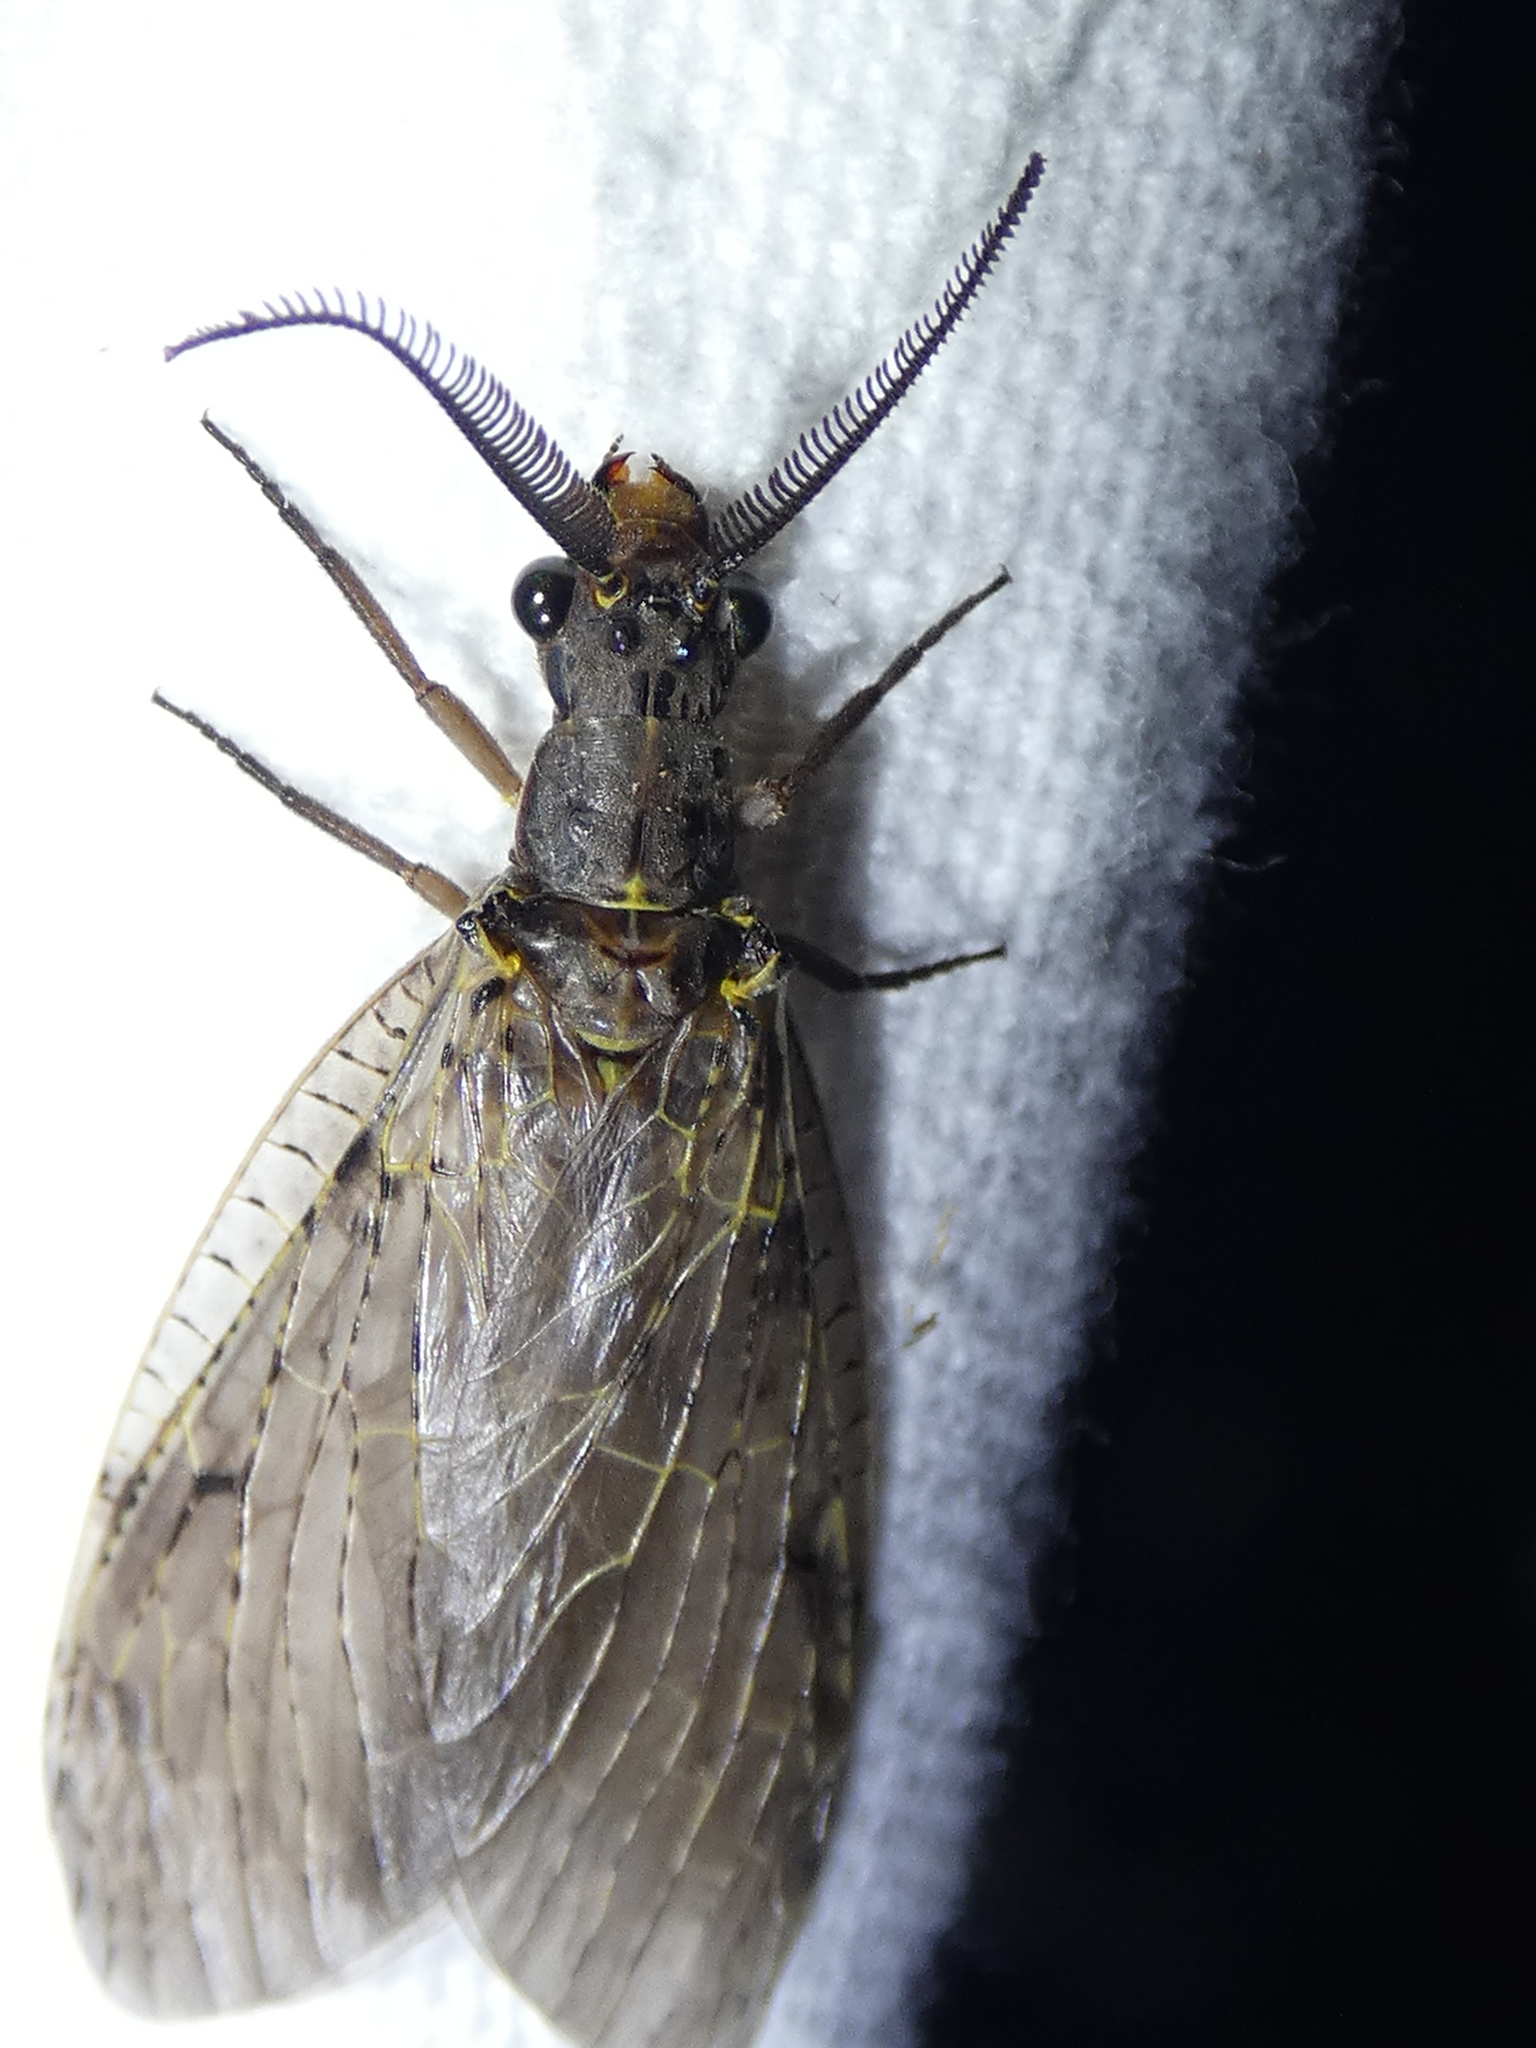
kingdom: Animalia
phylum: Arthropoda
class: Insecta
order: Megaloptera
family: Corydalidae
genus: Chauliodes
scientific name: Chauliodes rastricornis
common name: Spring fishfly
